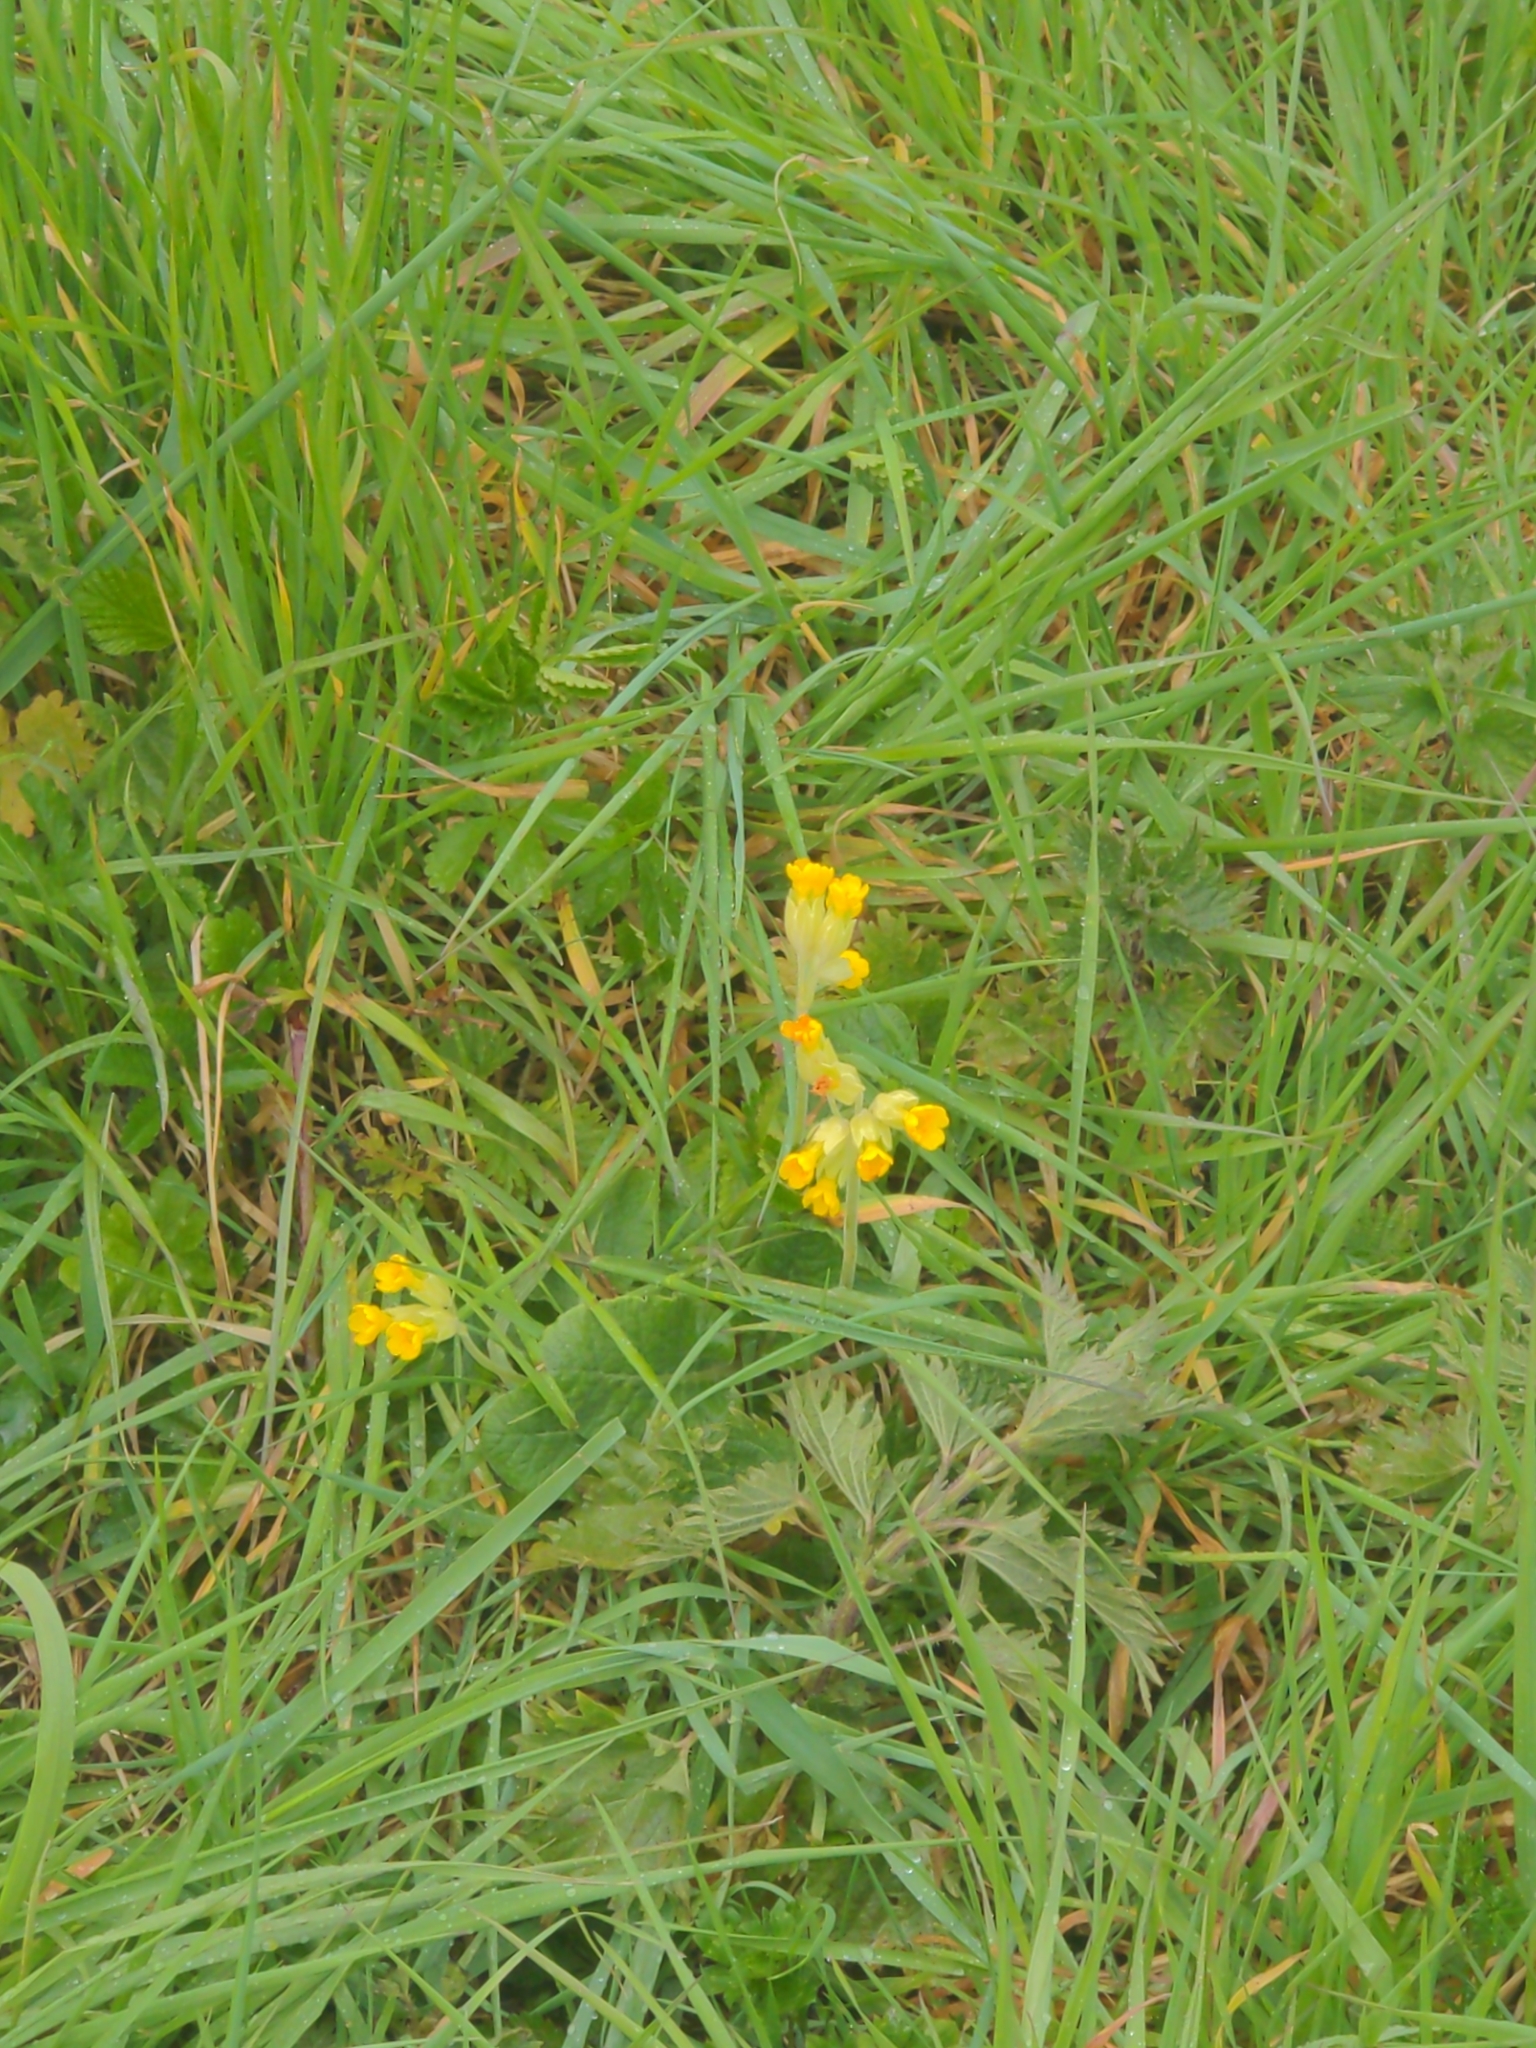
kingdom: Plantae
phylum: Tracheophyta
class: Magnoliopsida
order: Ericales
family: Primulaceae
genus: Primula
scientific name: Primula veris
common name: Cowslip
